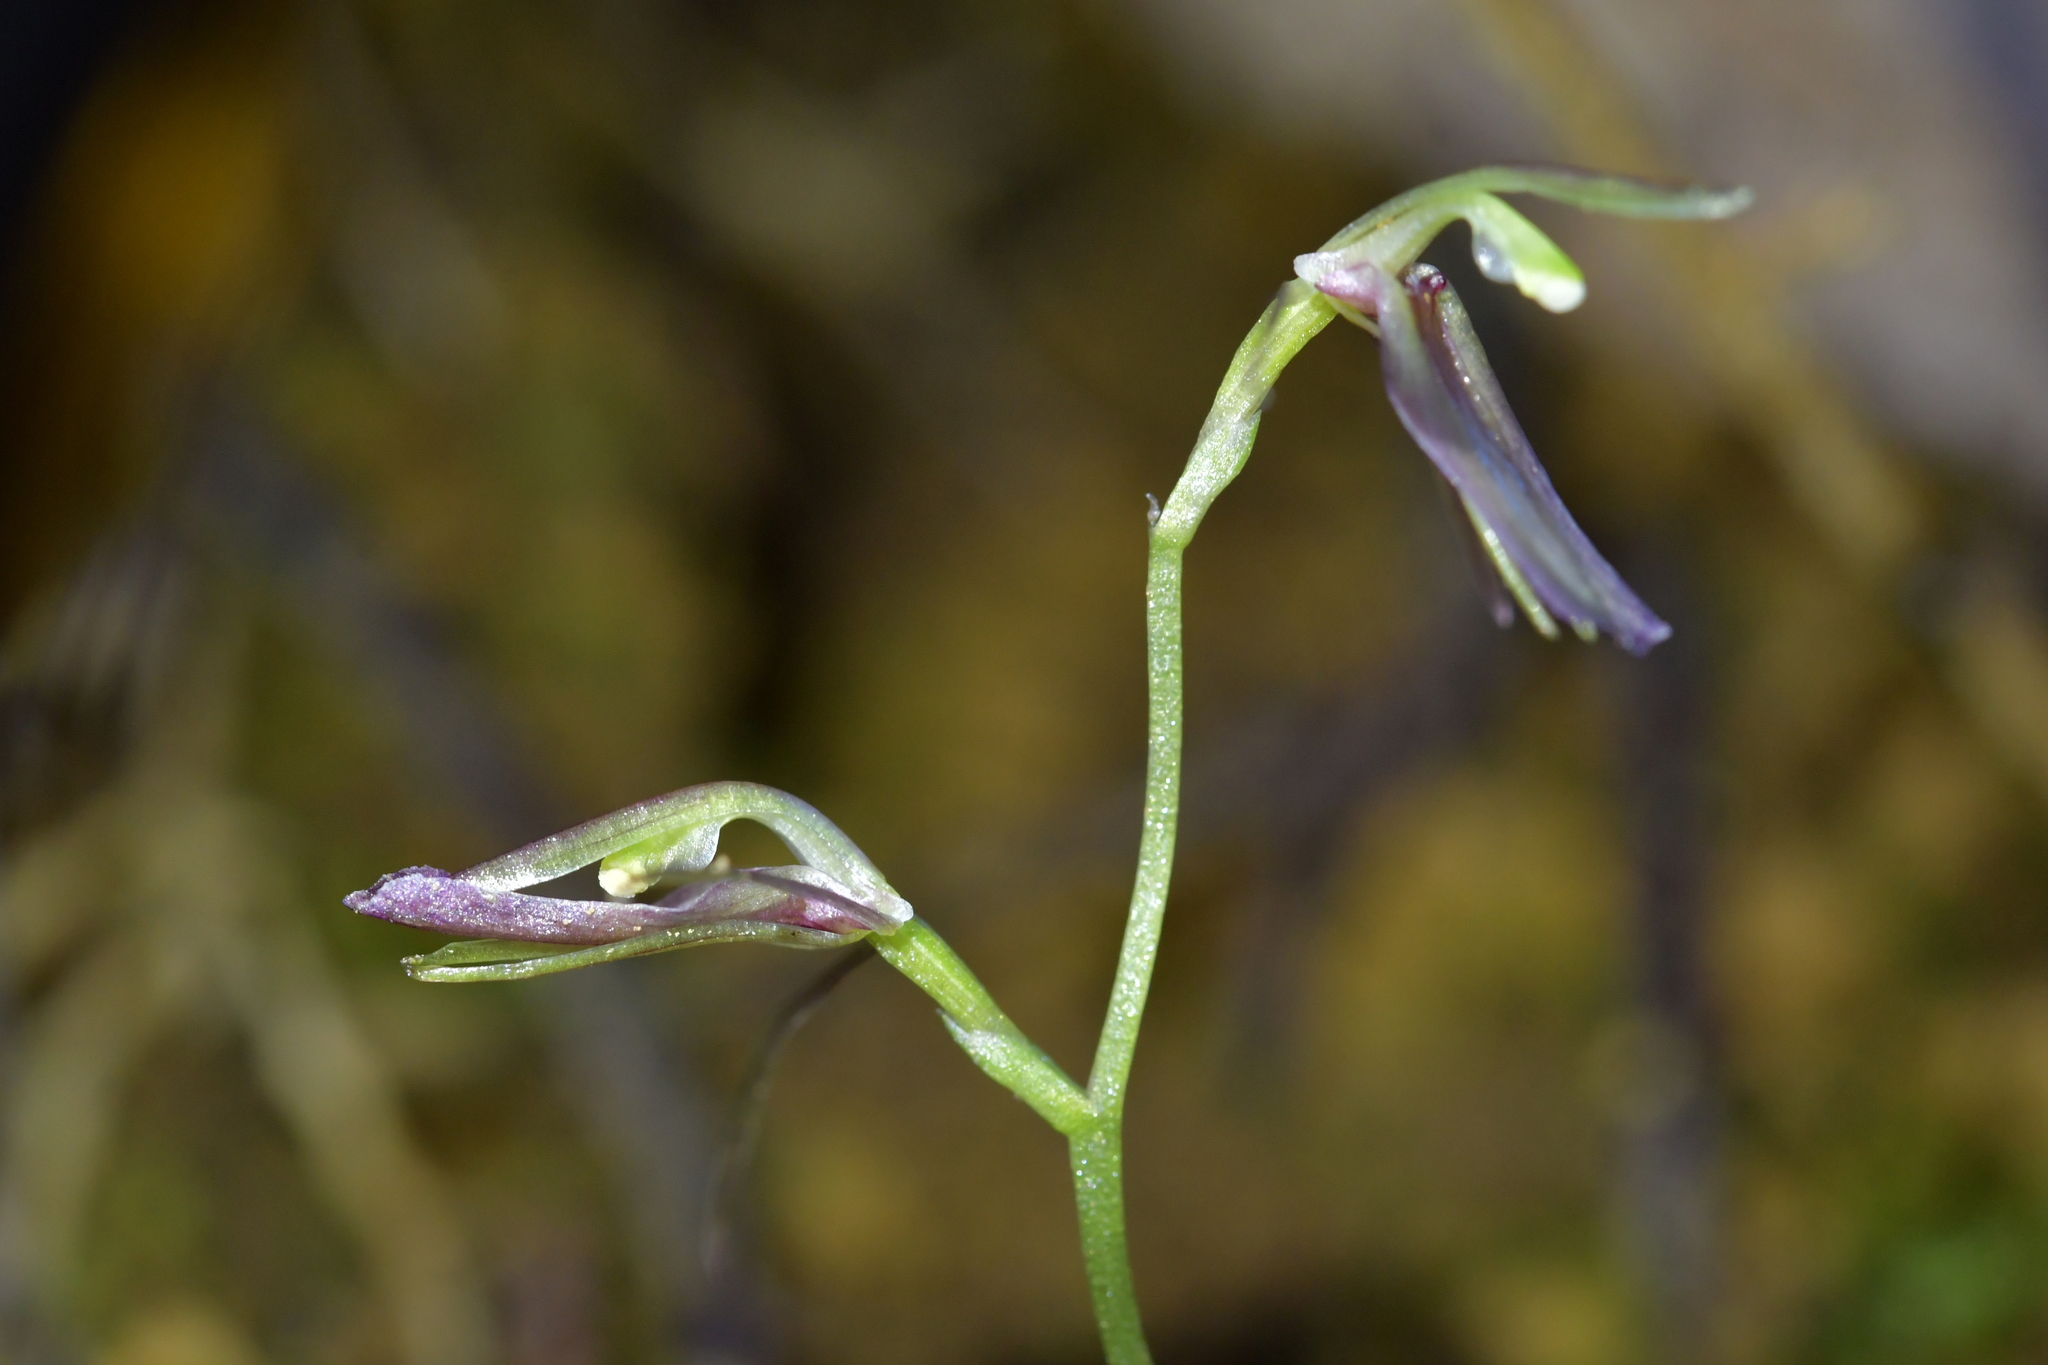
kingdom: Plantae
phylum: Tracheophyta
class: Liliopsida
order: Asparagales
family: Orchidaceae
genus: Cyrtostylis
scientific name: Cyrtostylis rotundifolia
